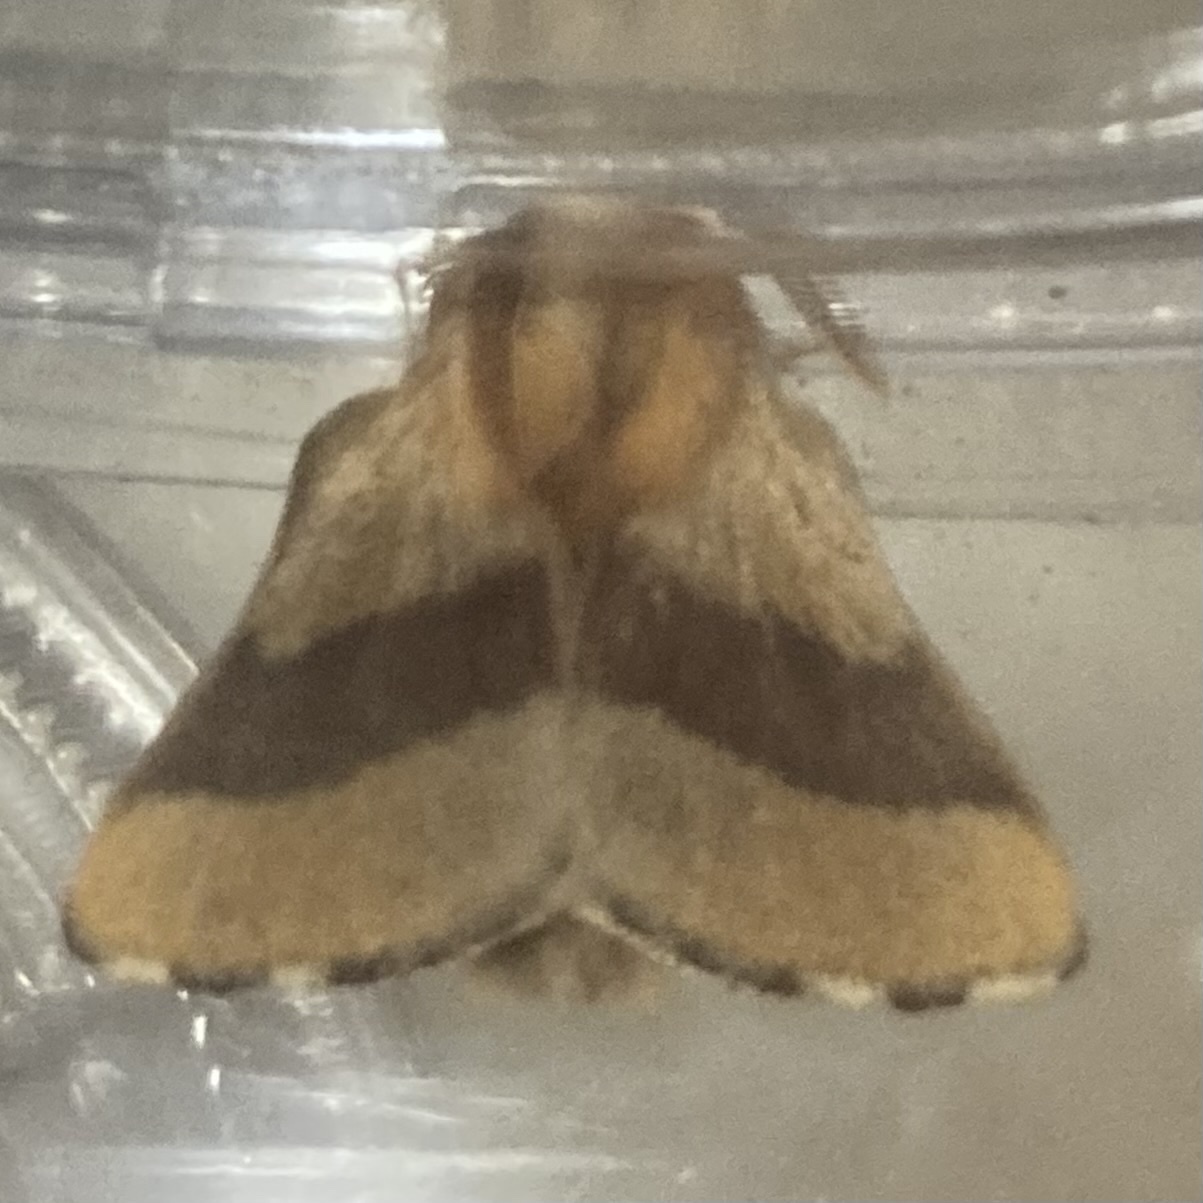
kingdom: Animalia
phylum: Arthropoda
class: Insecta
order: Lepidoptera
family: Lasiocampidae
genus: Malacosoma
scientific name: Malacosoma disstria
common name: Forest tent caterpillar
